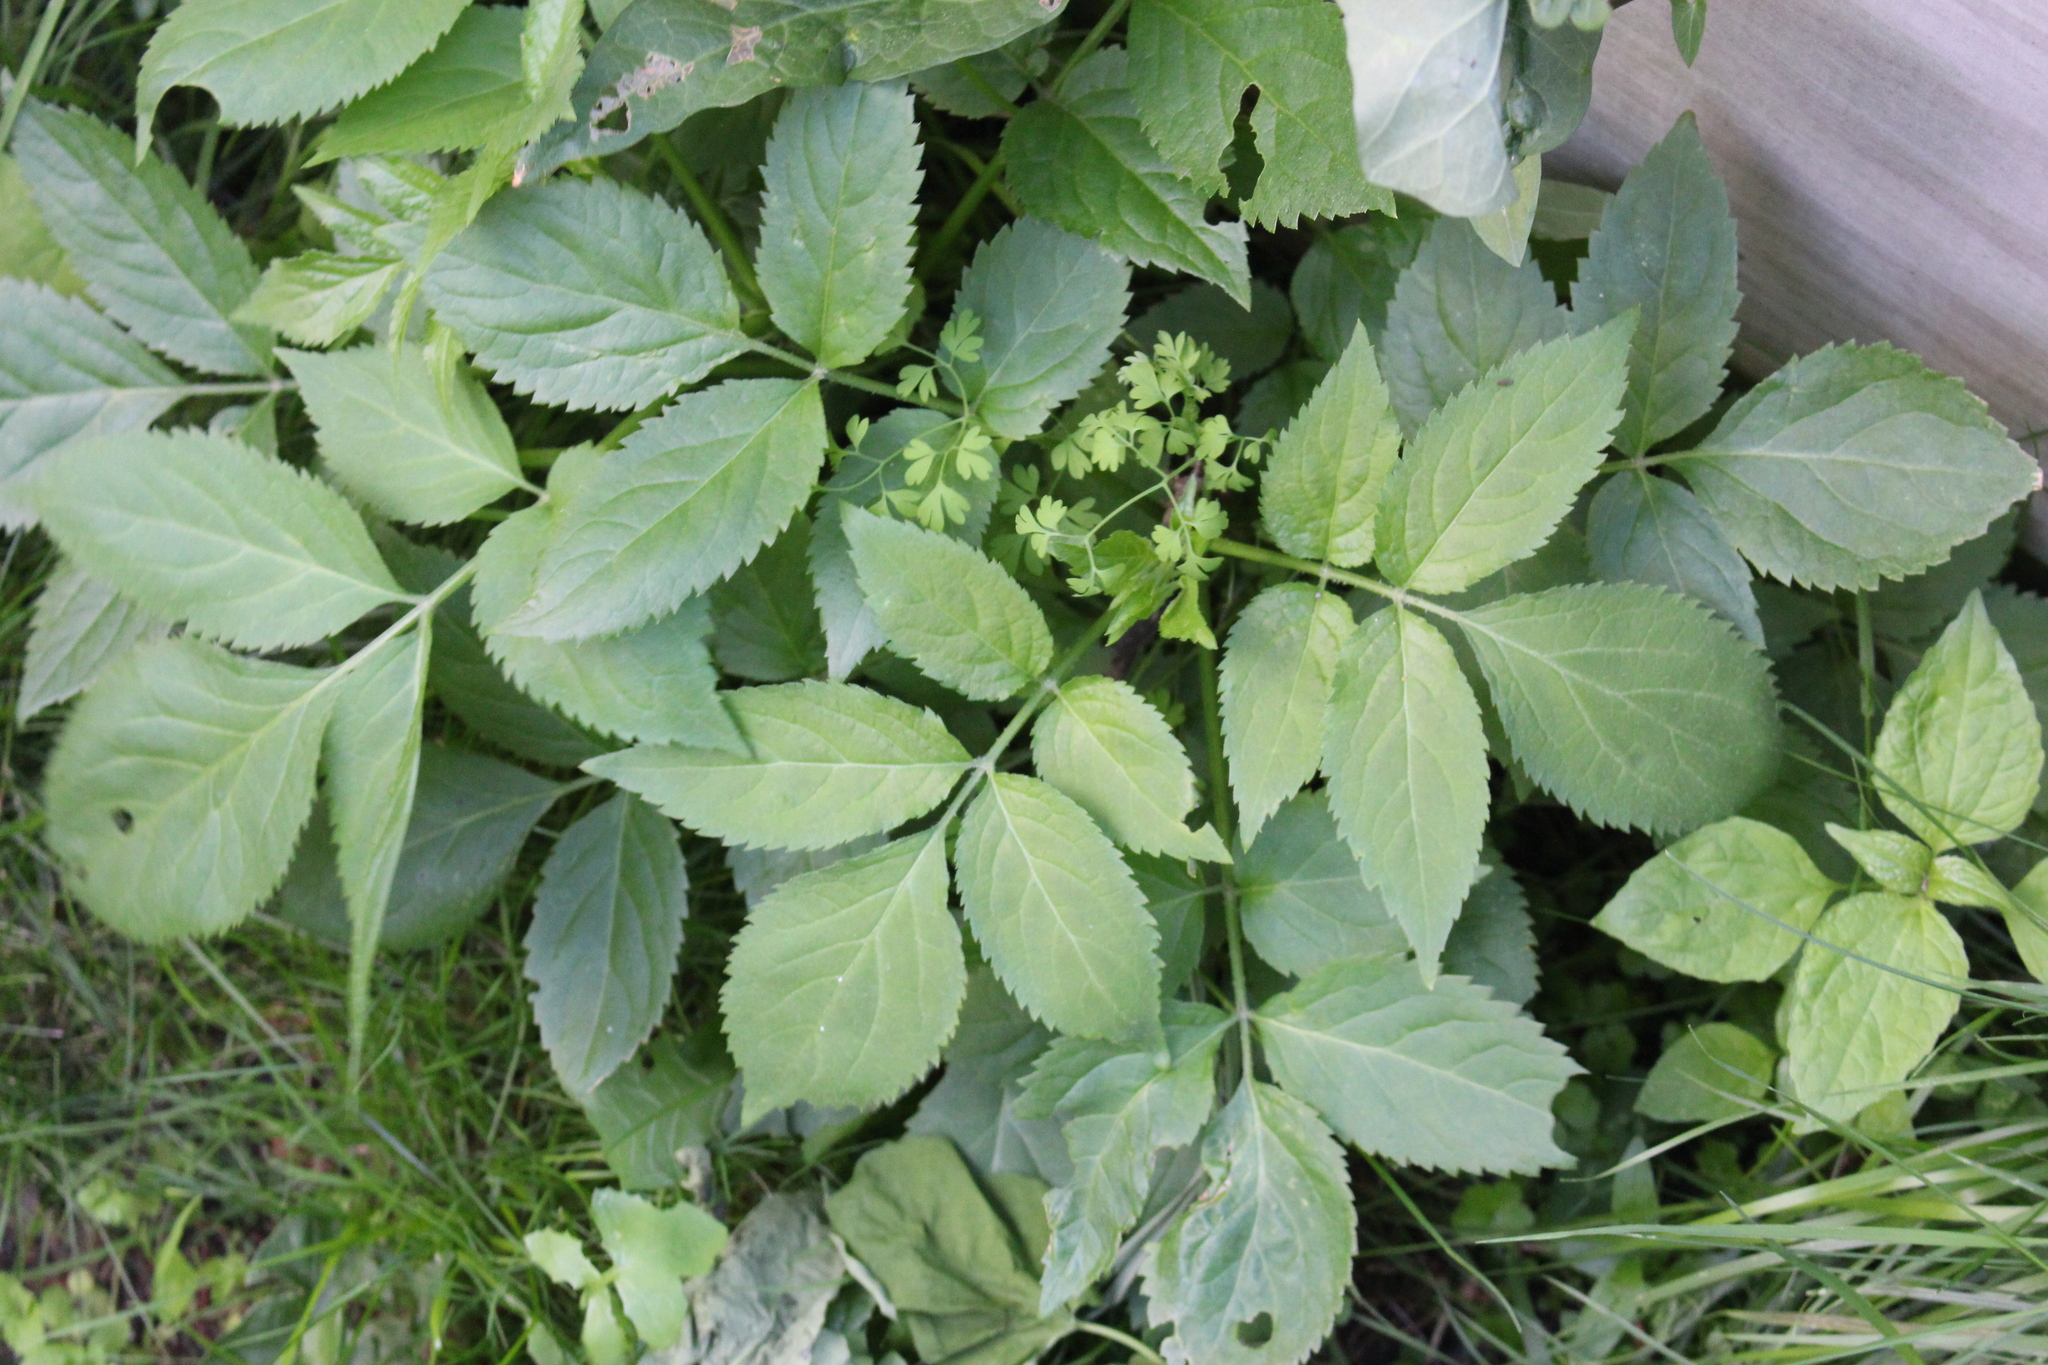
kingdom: Plantae
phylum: Tracheophyta
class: Magnoliopsida
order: Dipsacales
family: Viburnaceae
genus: Sambucus
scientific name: Sambucus nigra
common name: Elder
